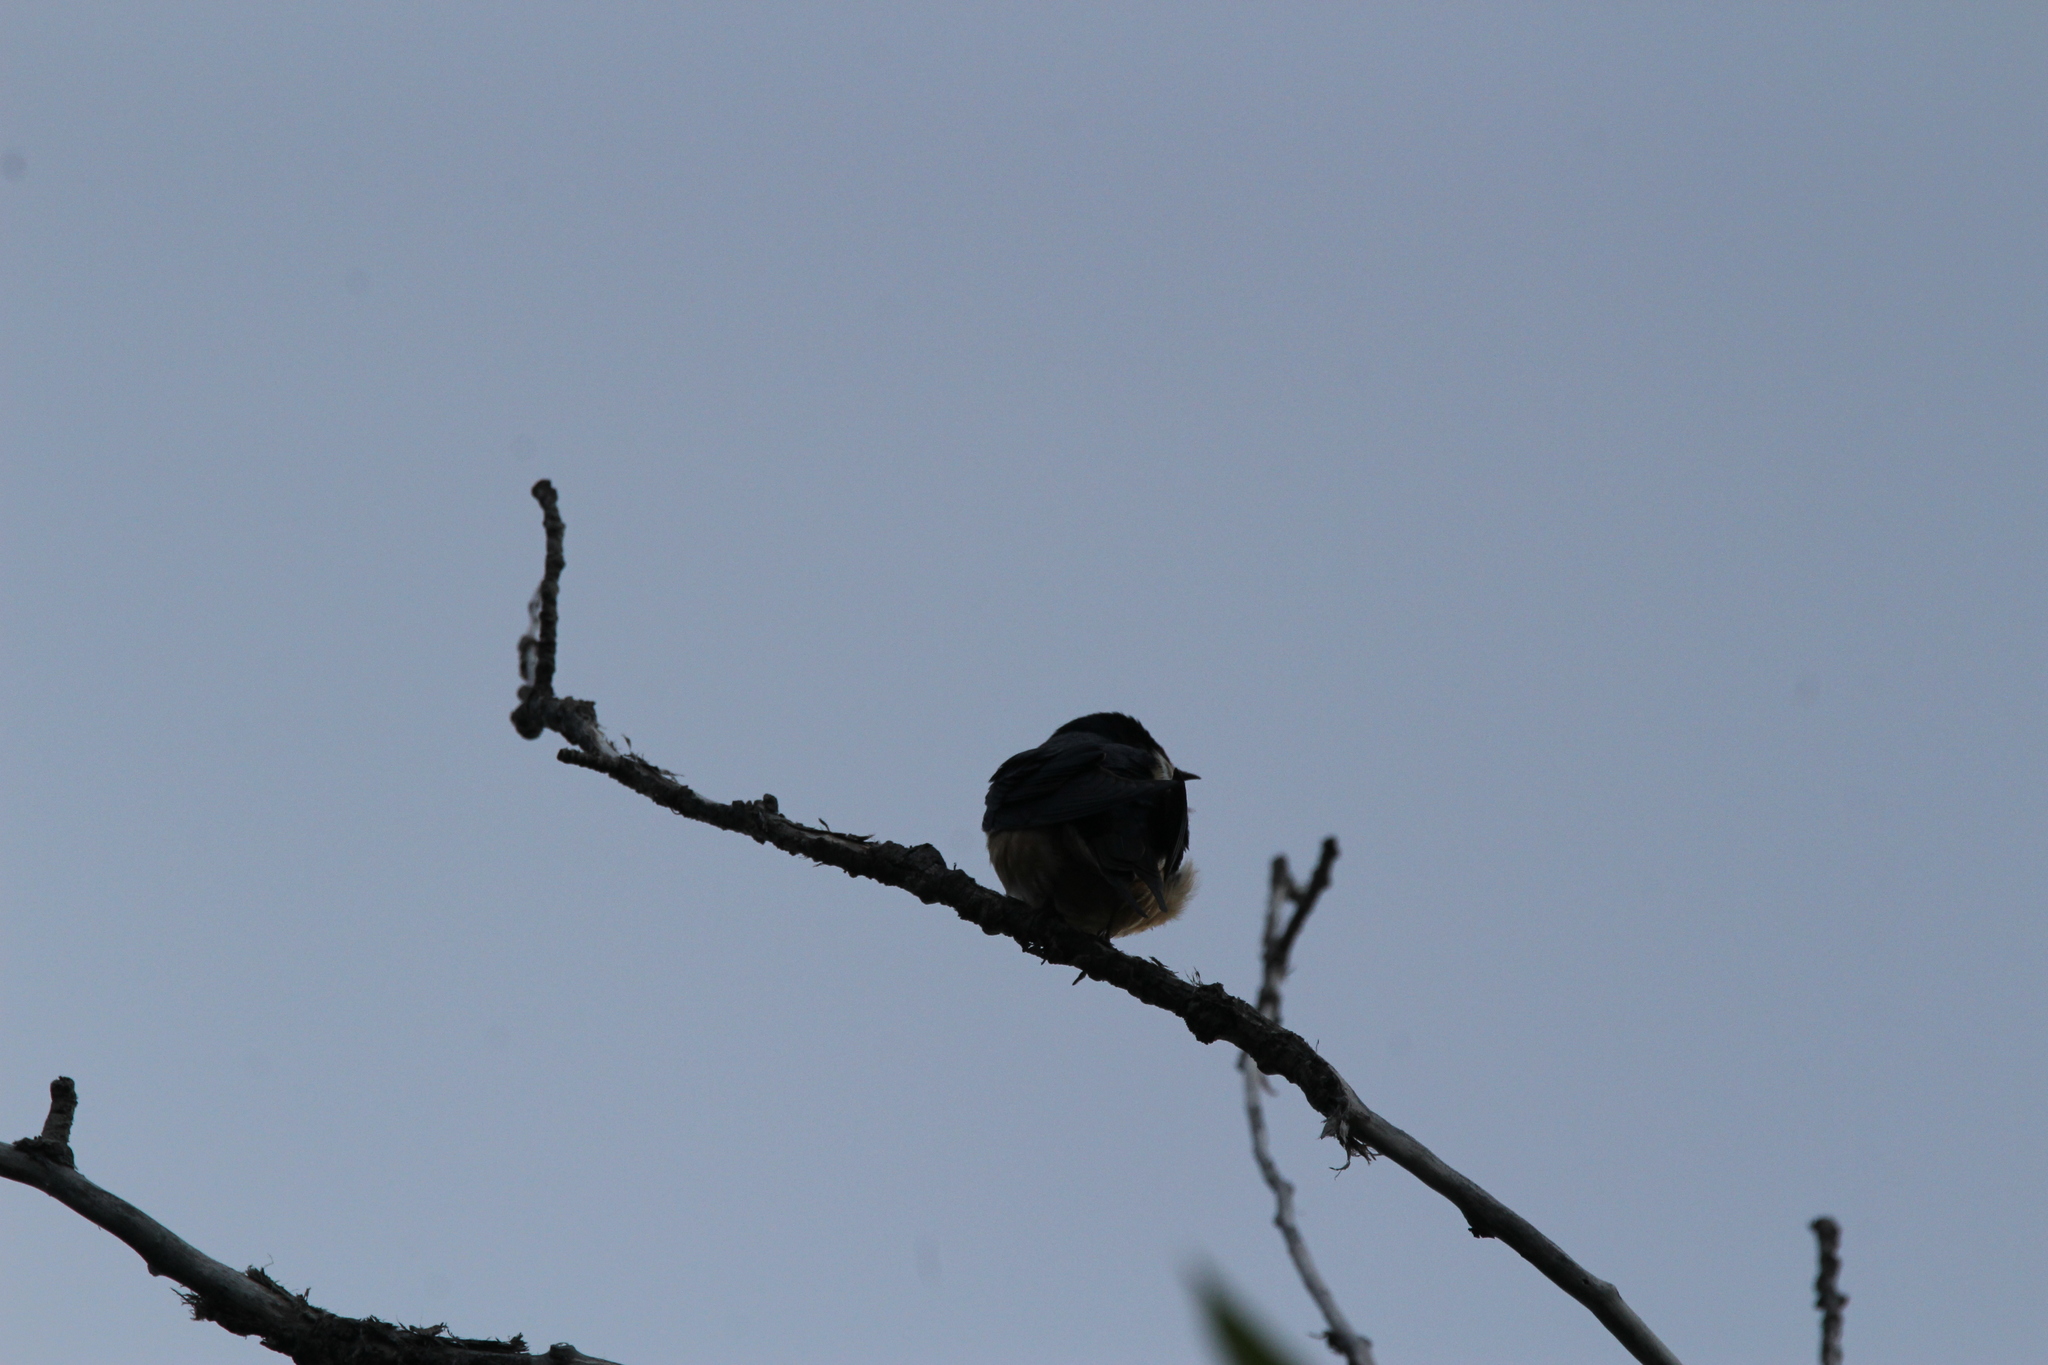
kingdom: Animalia
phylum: Chordata
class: Aves
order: Passeriformes
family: Hirundinidae
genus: Hirundo
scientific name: Hirundo rustica
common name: Barn swallow
